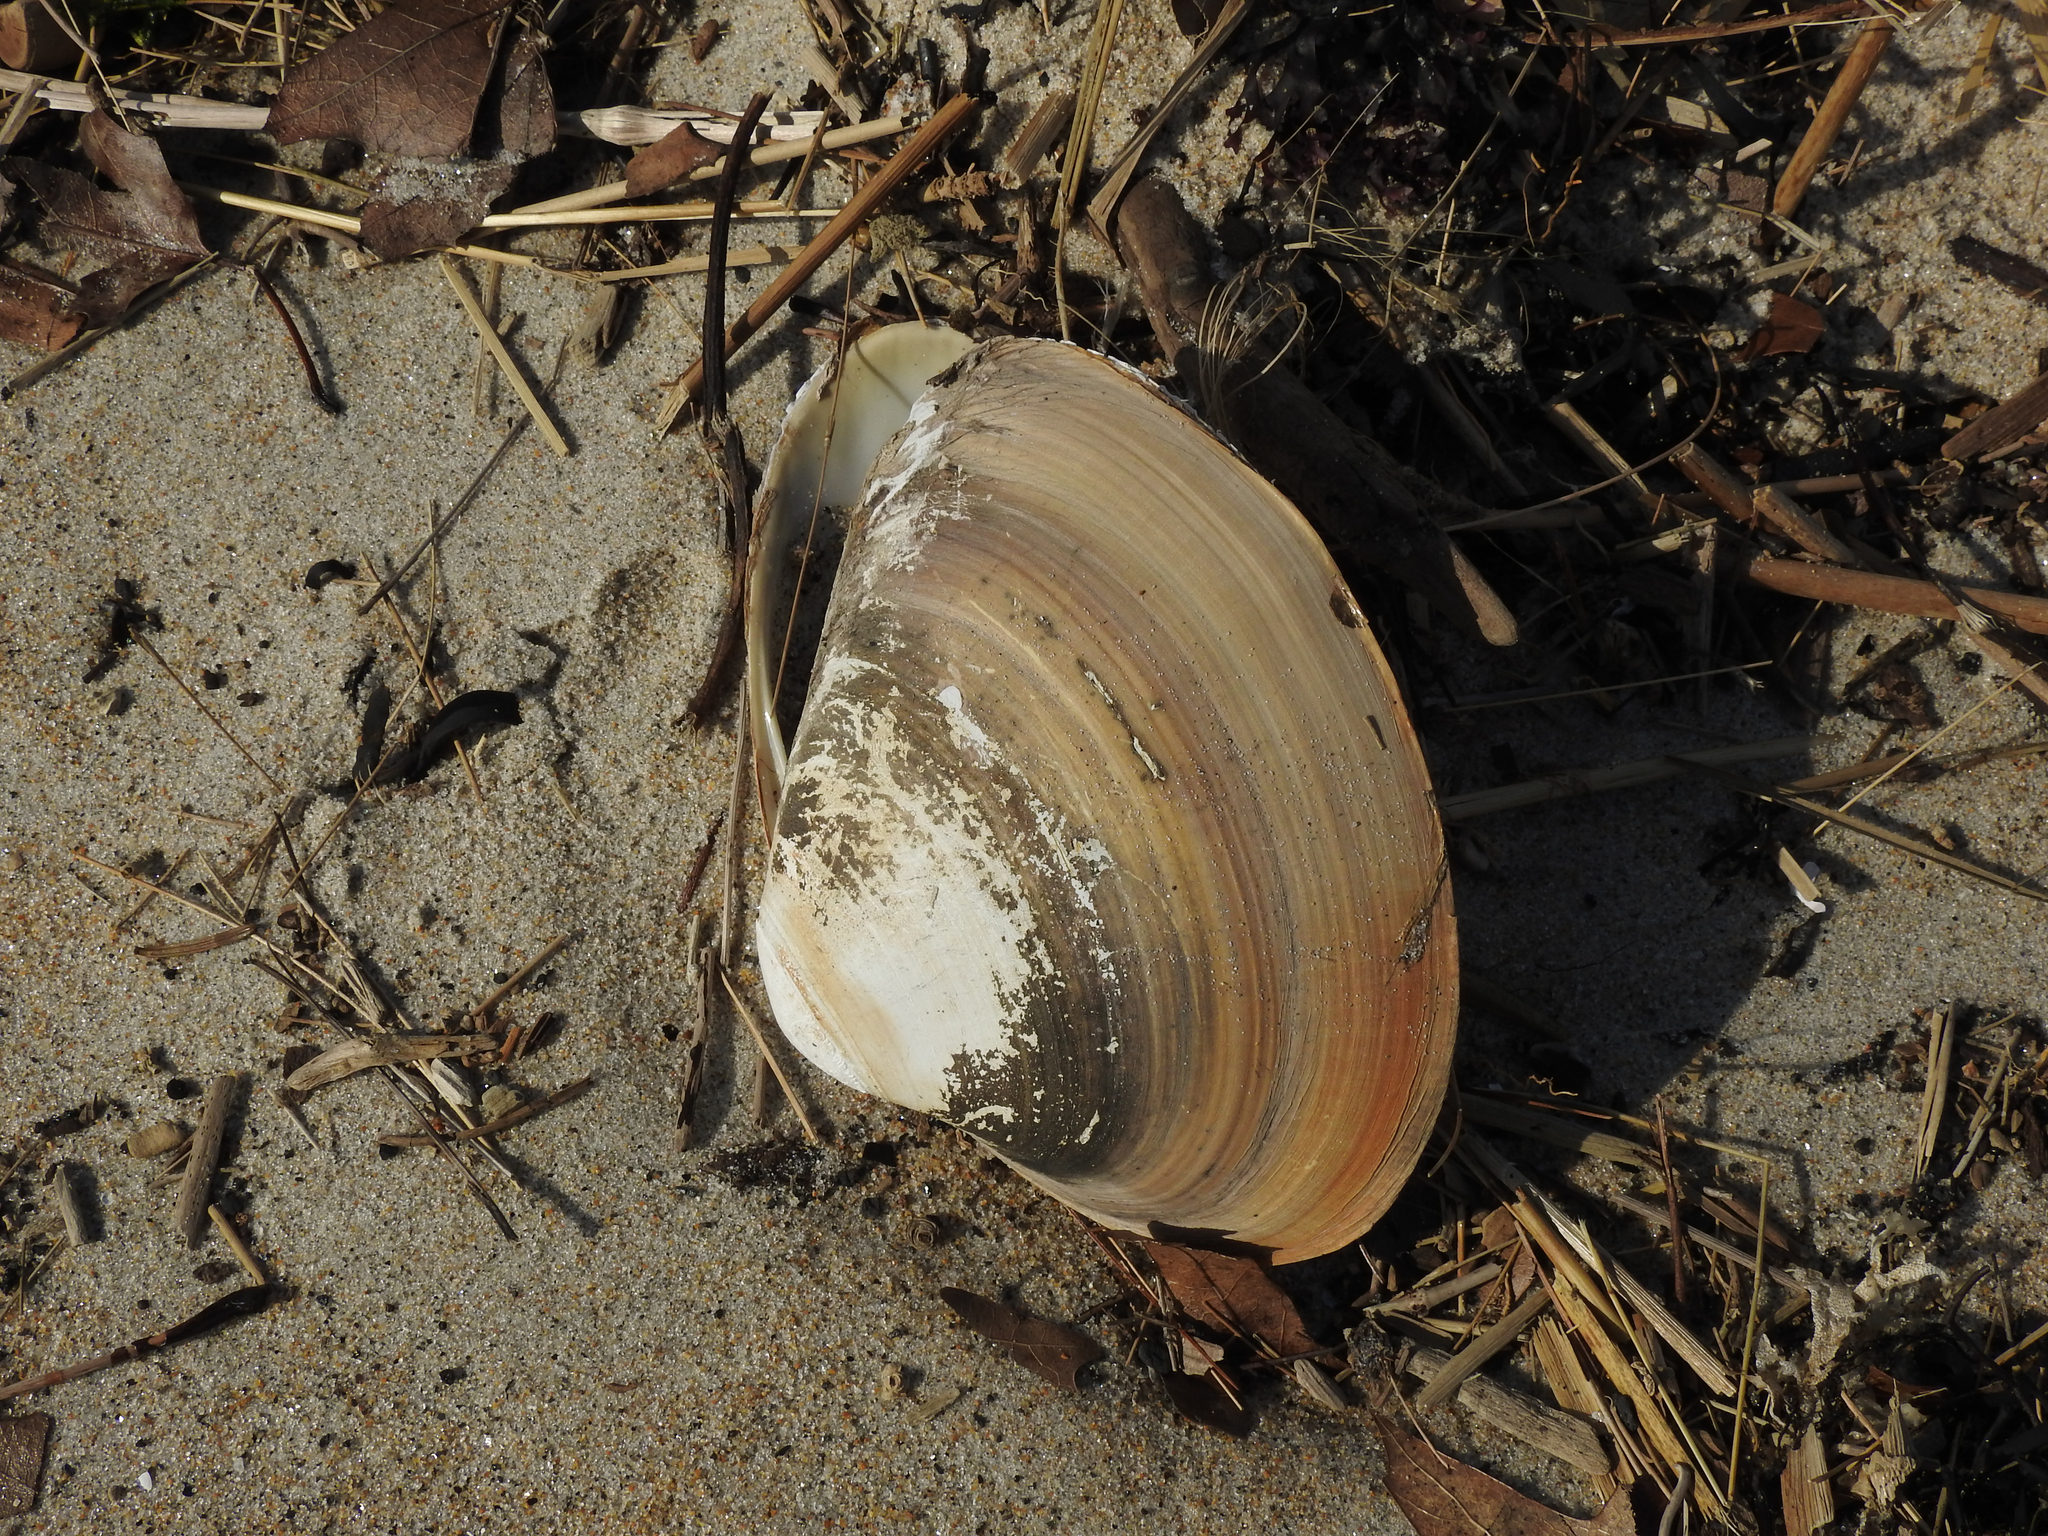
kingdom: Animalia
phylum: Mollusca
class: Bivalvia
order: Venerida
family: Mactridae
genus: Spisula
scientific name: Spisula solidissima
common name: Atlantic surf clam
